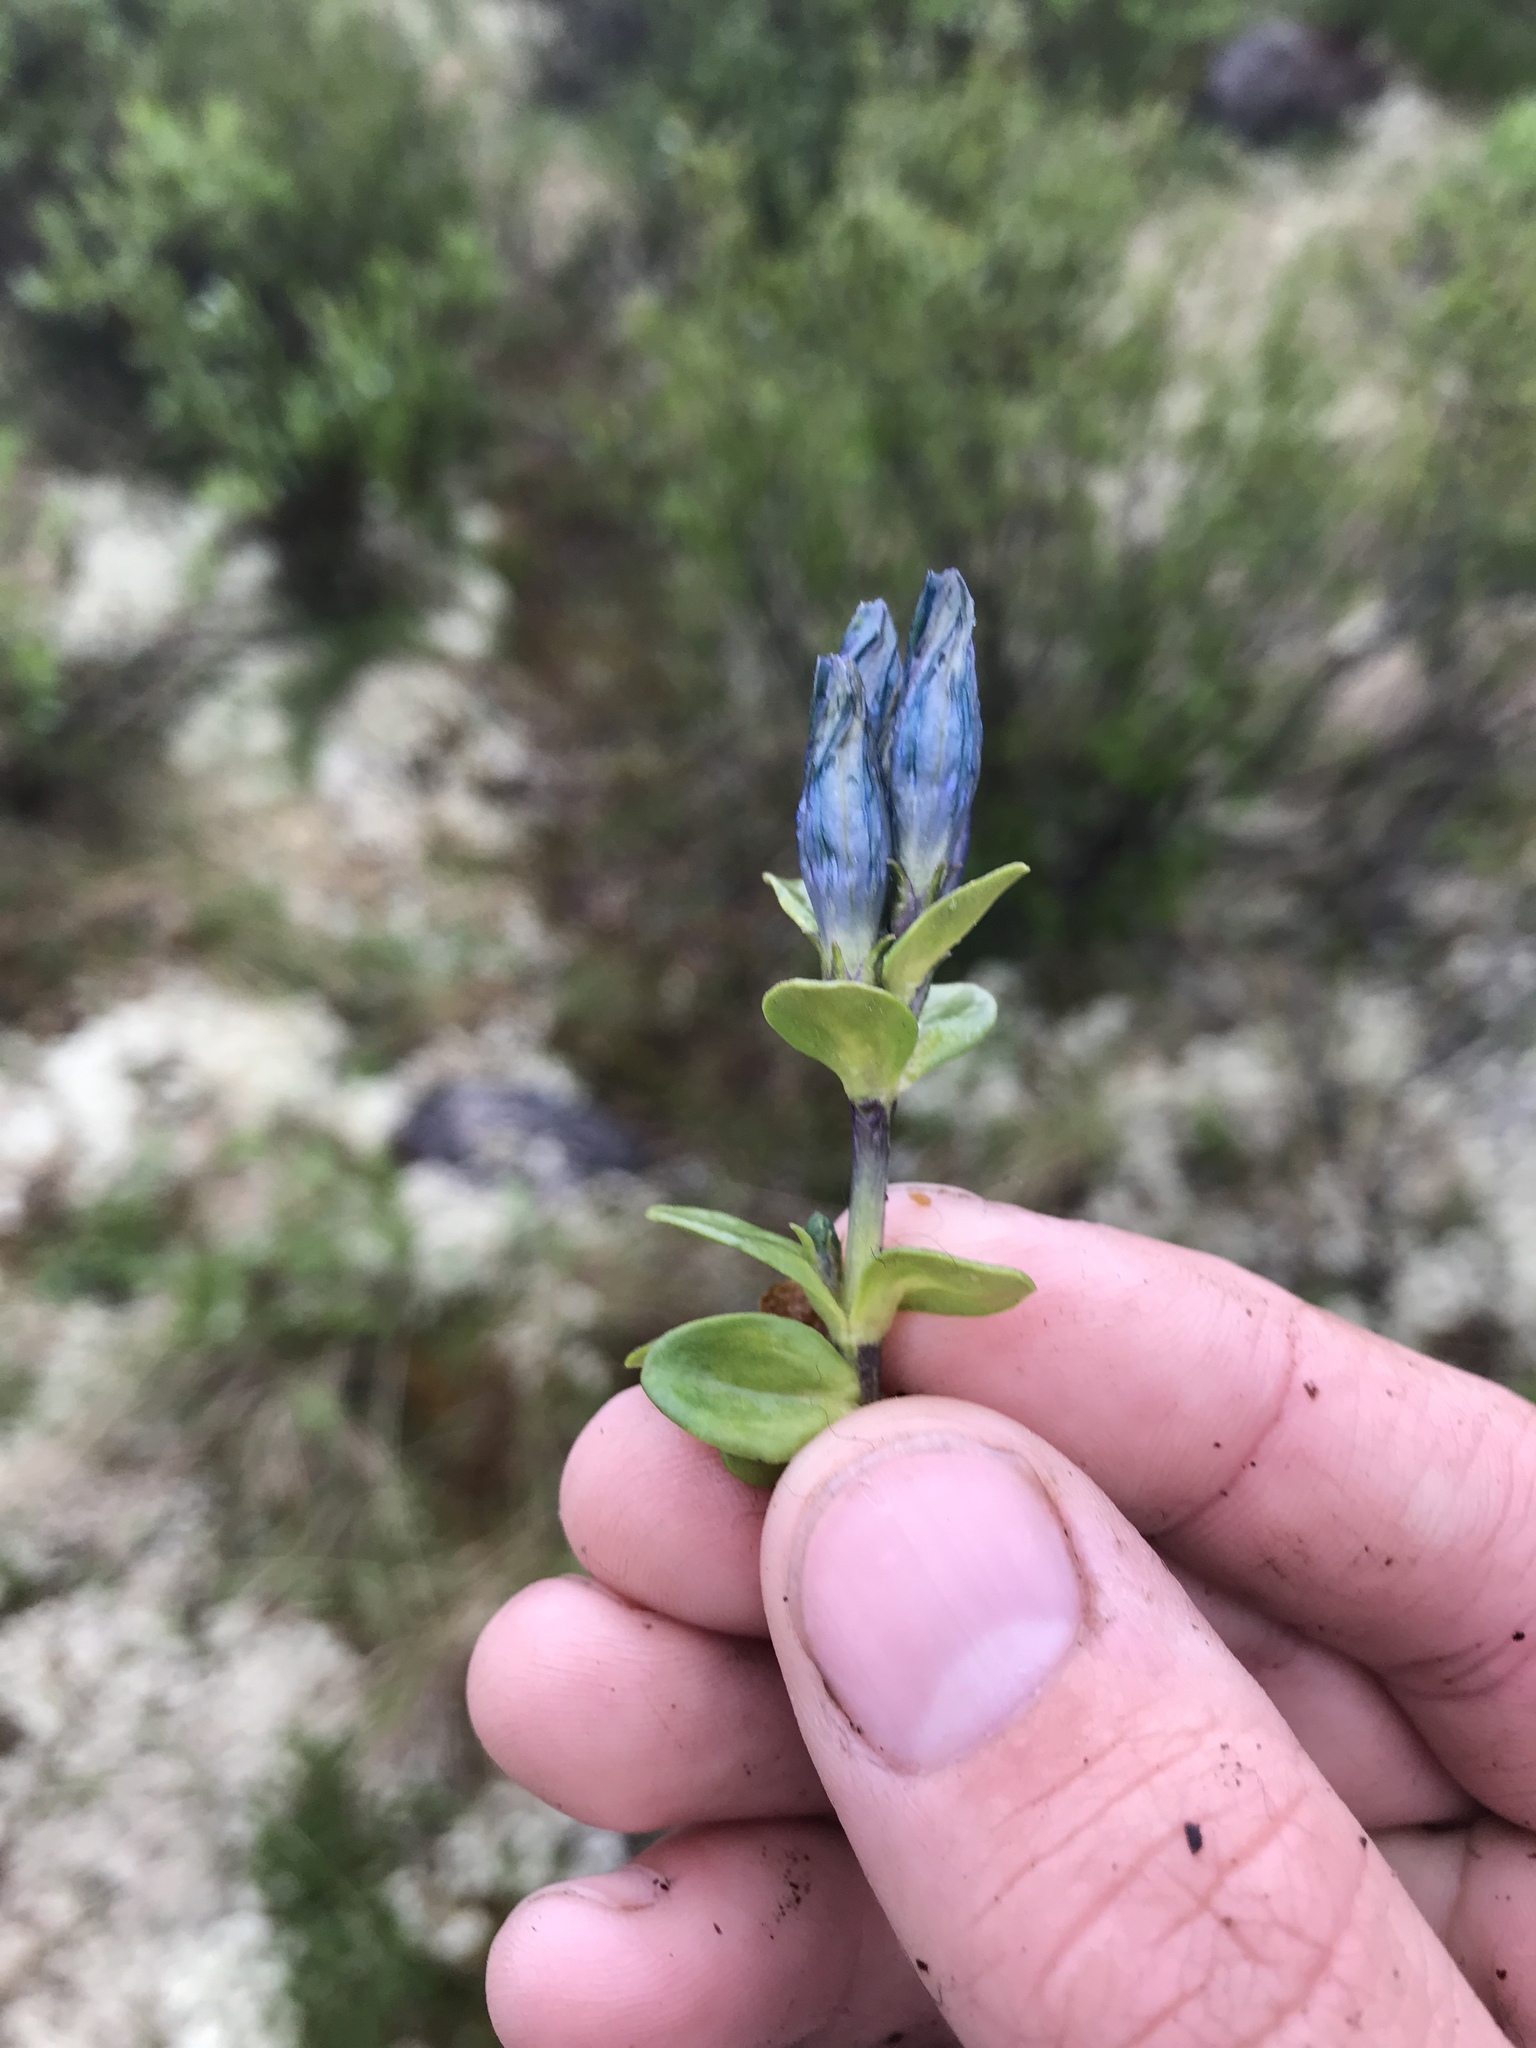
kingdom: Plantae
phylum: Tracheophyta
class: Magnoliopsida
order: Gentianales
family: Gentianaceae
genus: Gentiana
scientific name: Gentiana glauca
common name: Alpine gentian
